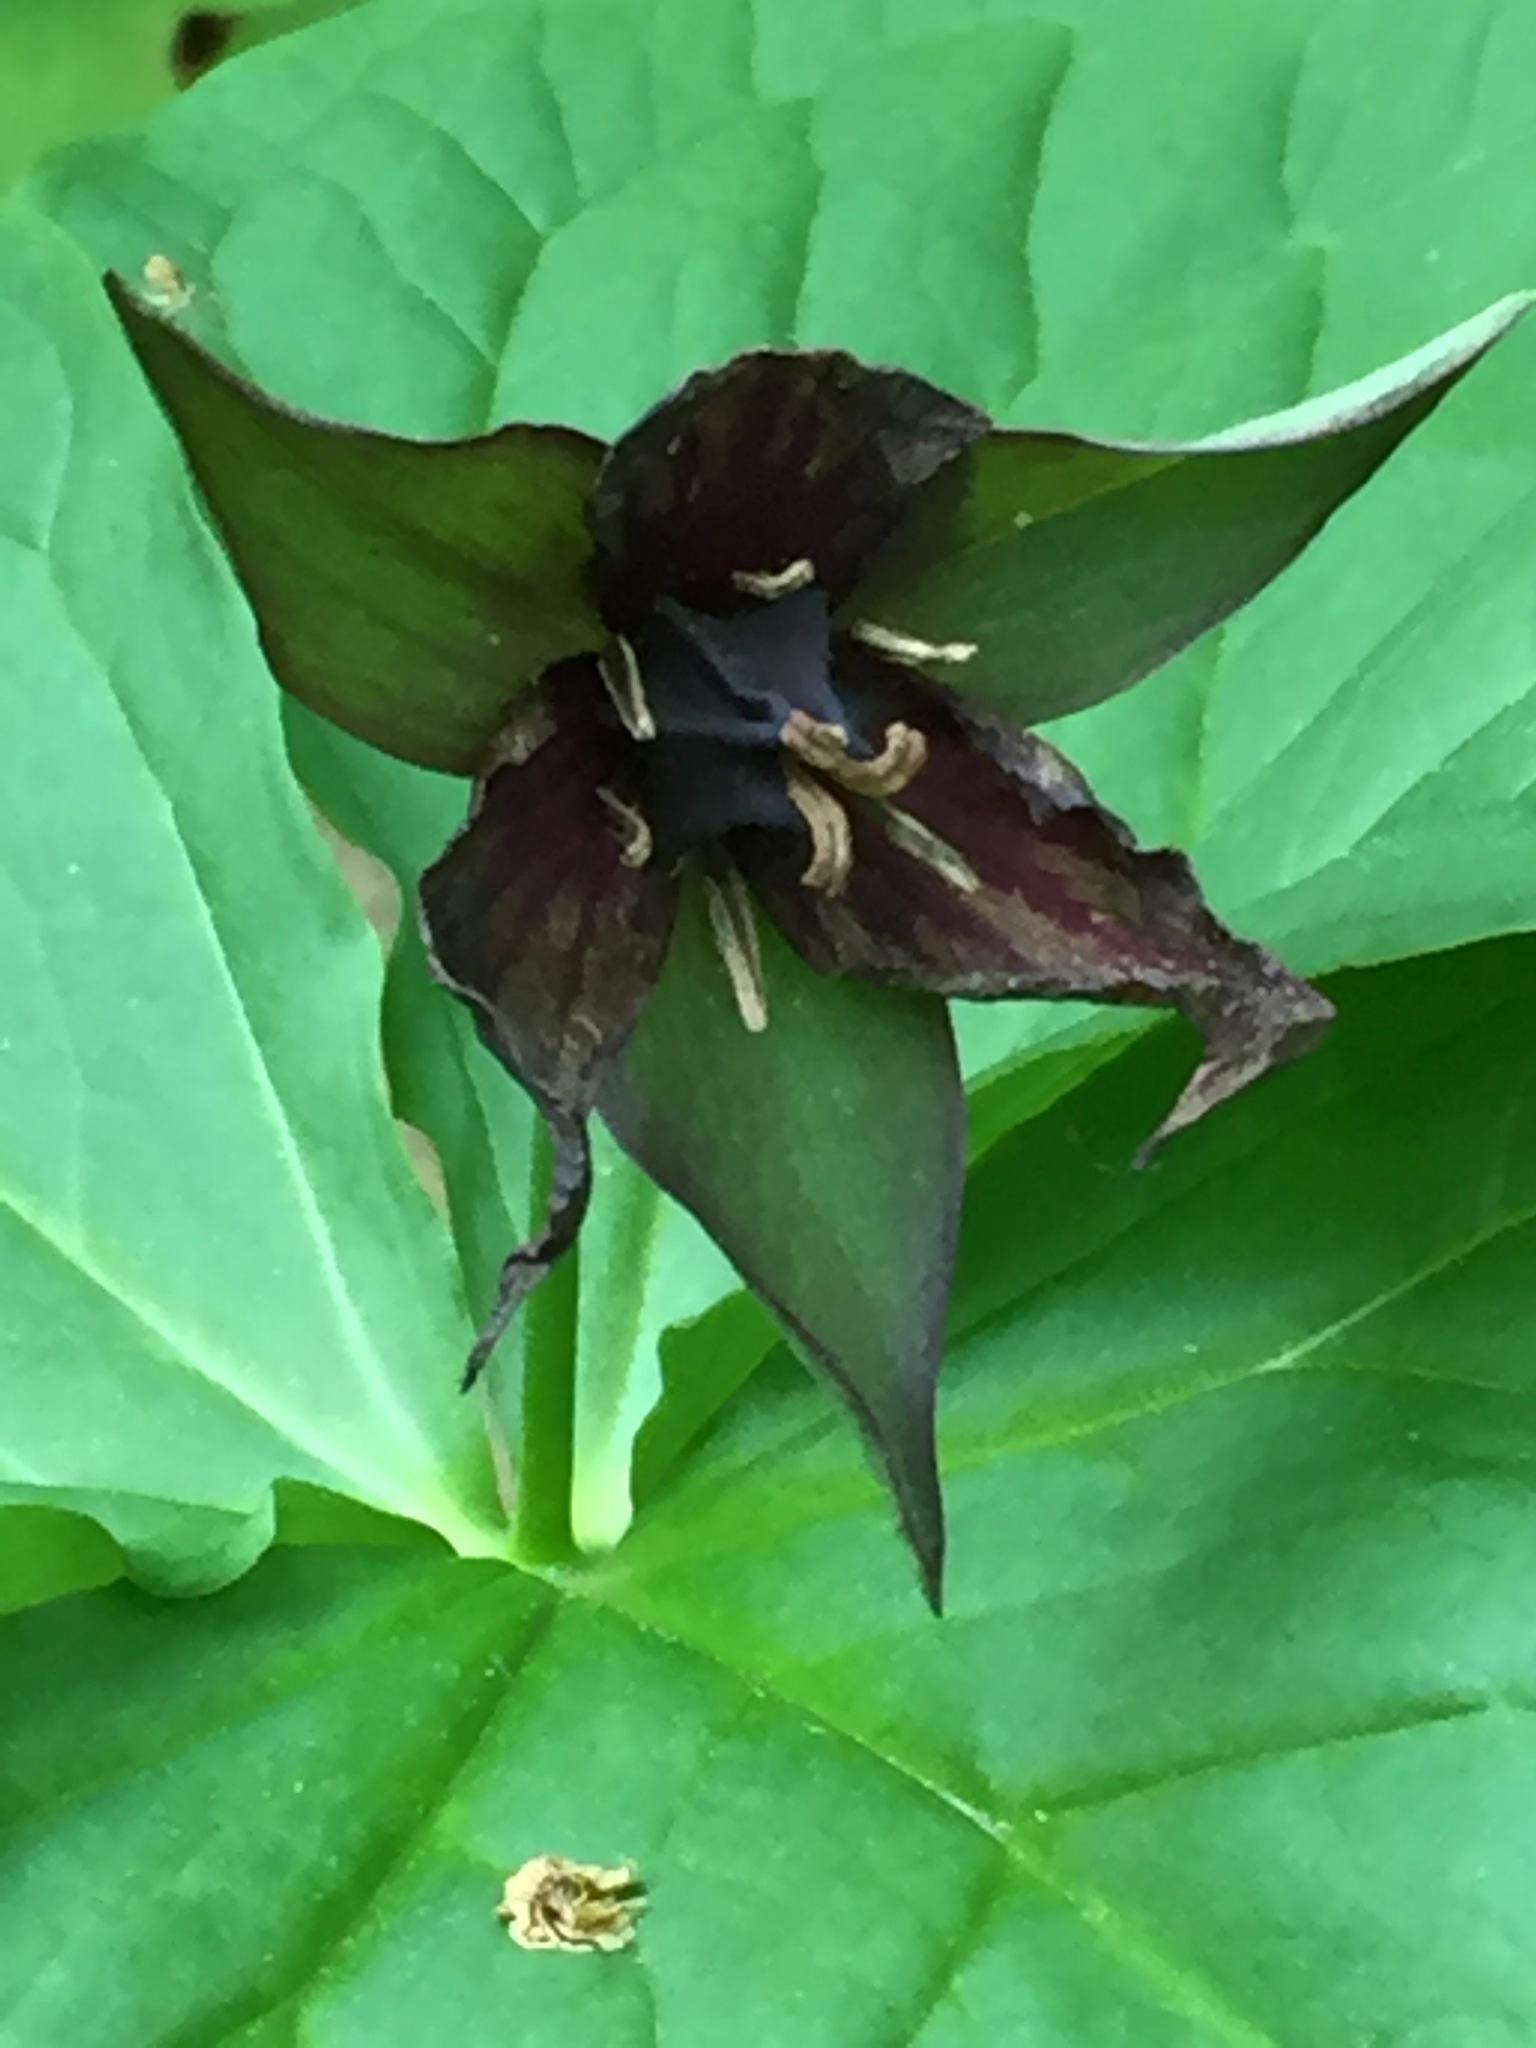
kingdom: Plantae
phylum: Tracheophyta
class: Liliopsida
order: Liliales
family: Melanthiaceae
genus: Trillium
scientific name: Trillium erectum
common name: Purple trillium
